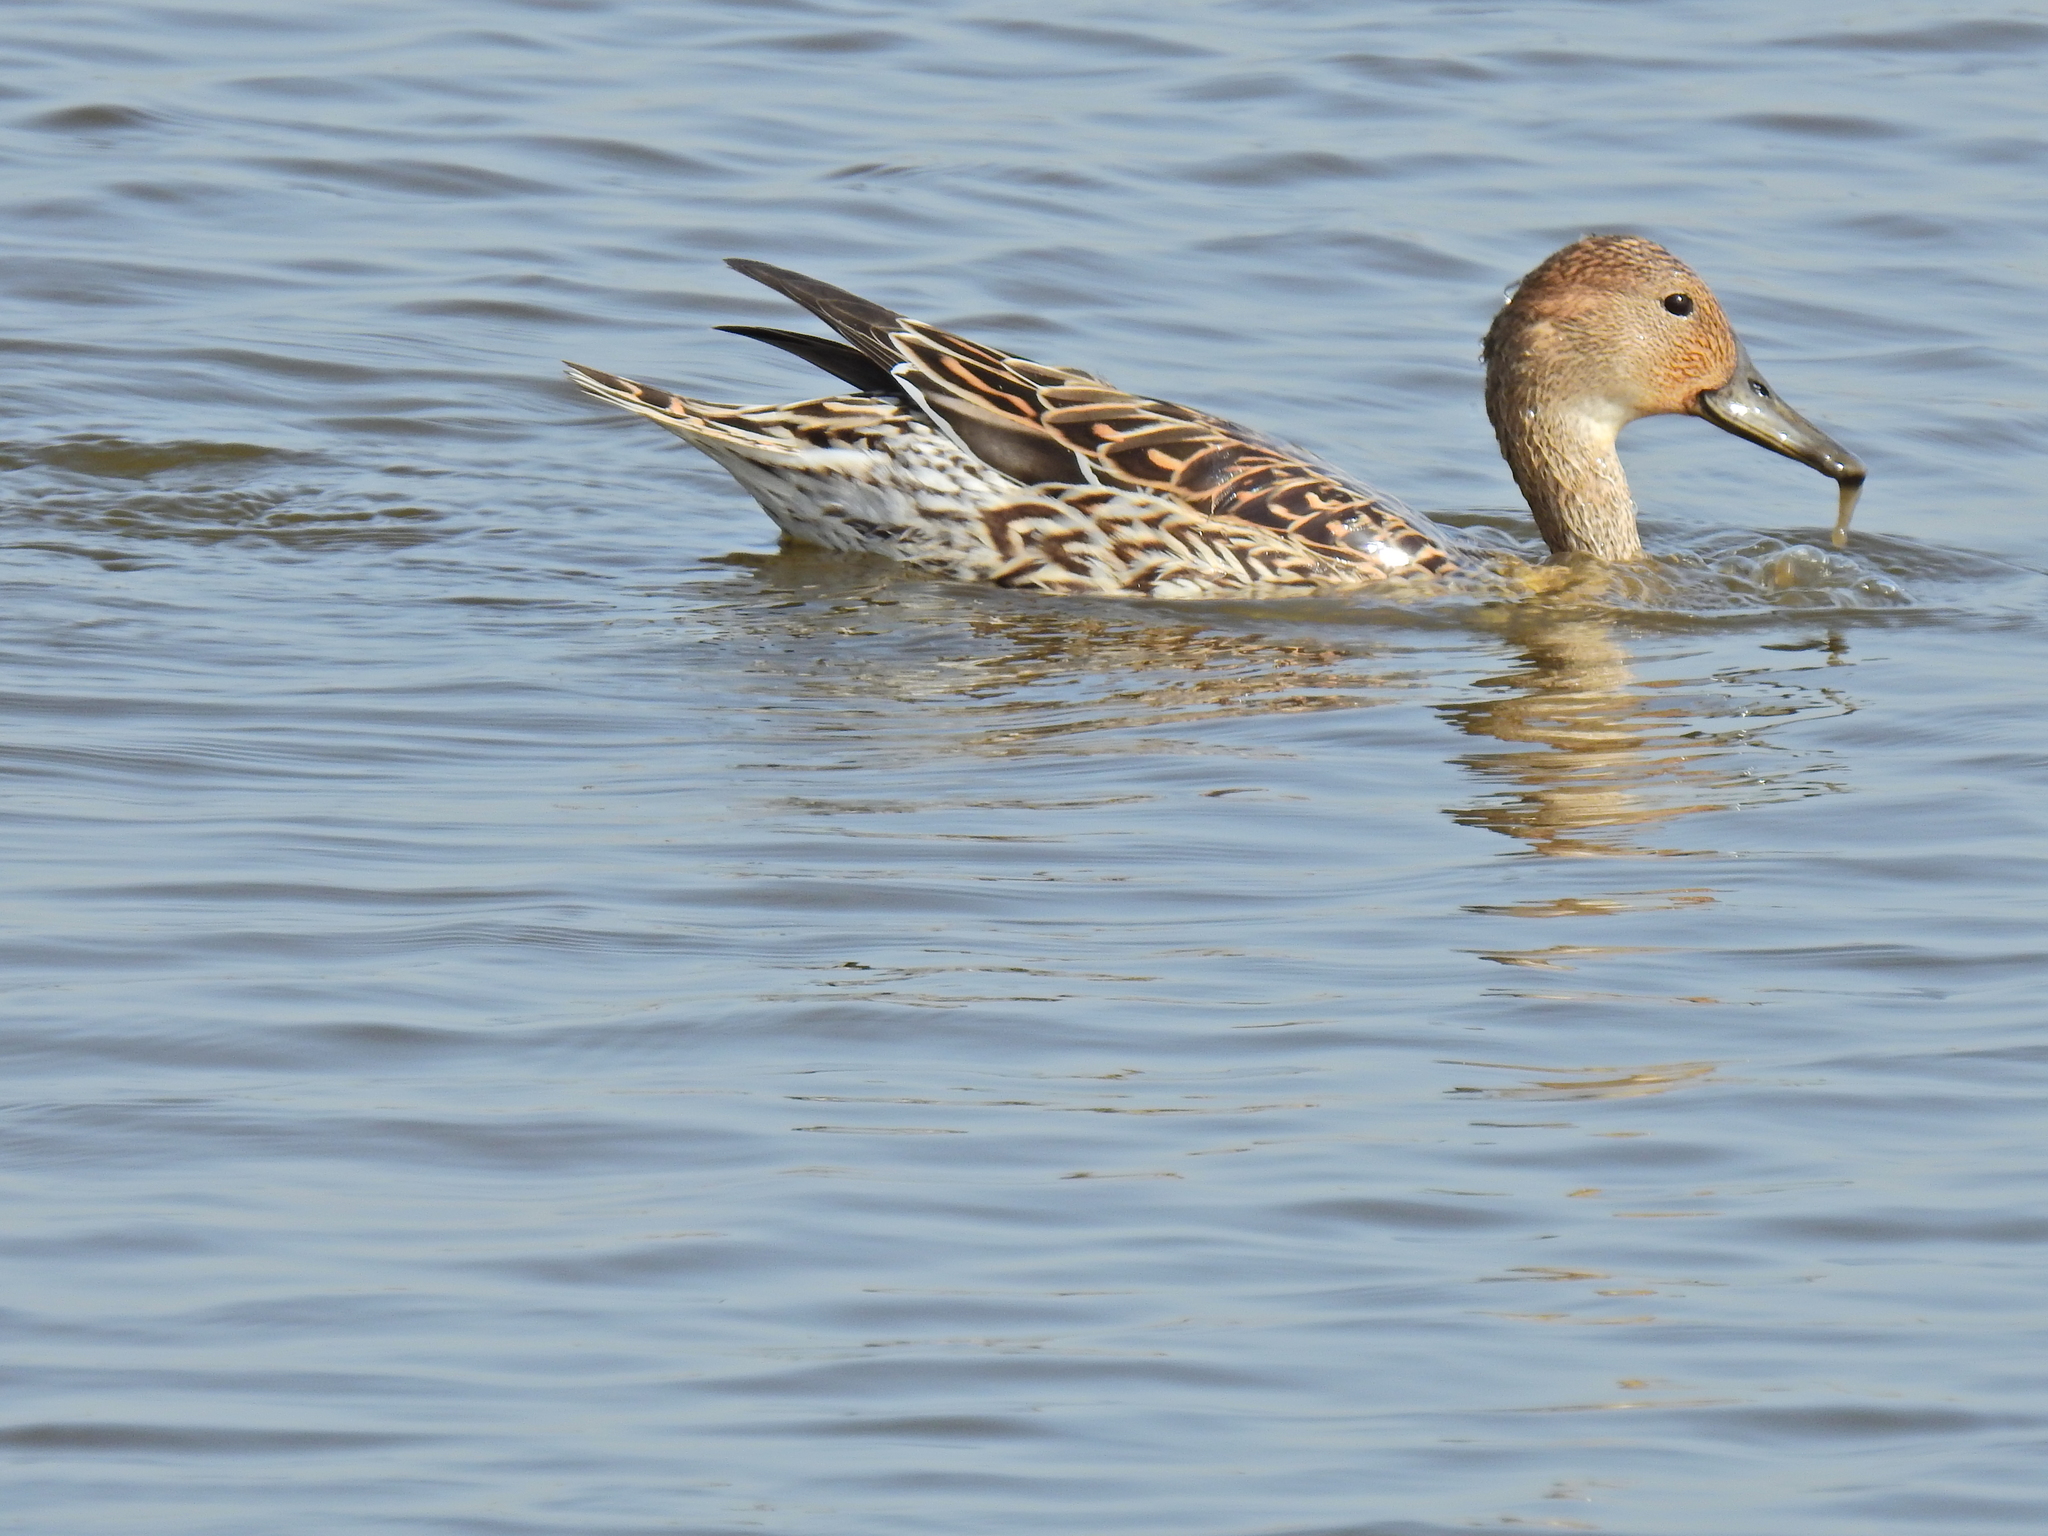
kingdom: Animalia
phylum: Chordata
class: Aves
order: Anseriformes
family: Anatidae
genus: Anas
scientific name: Anas acuta
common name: Northern pintail
